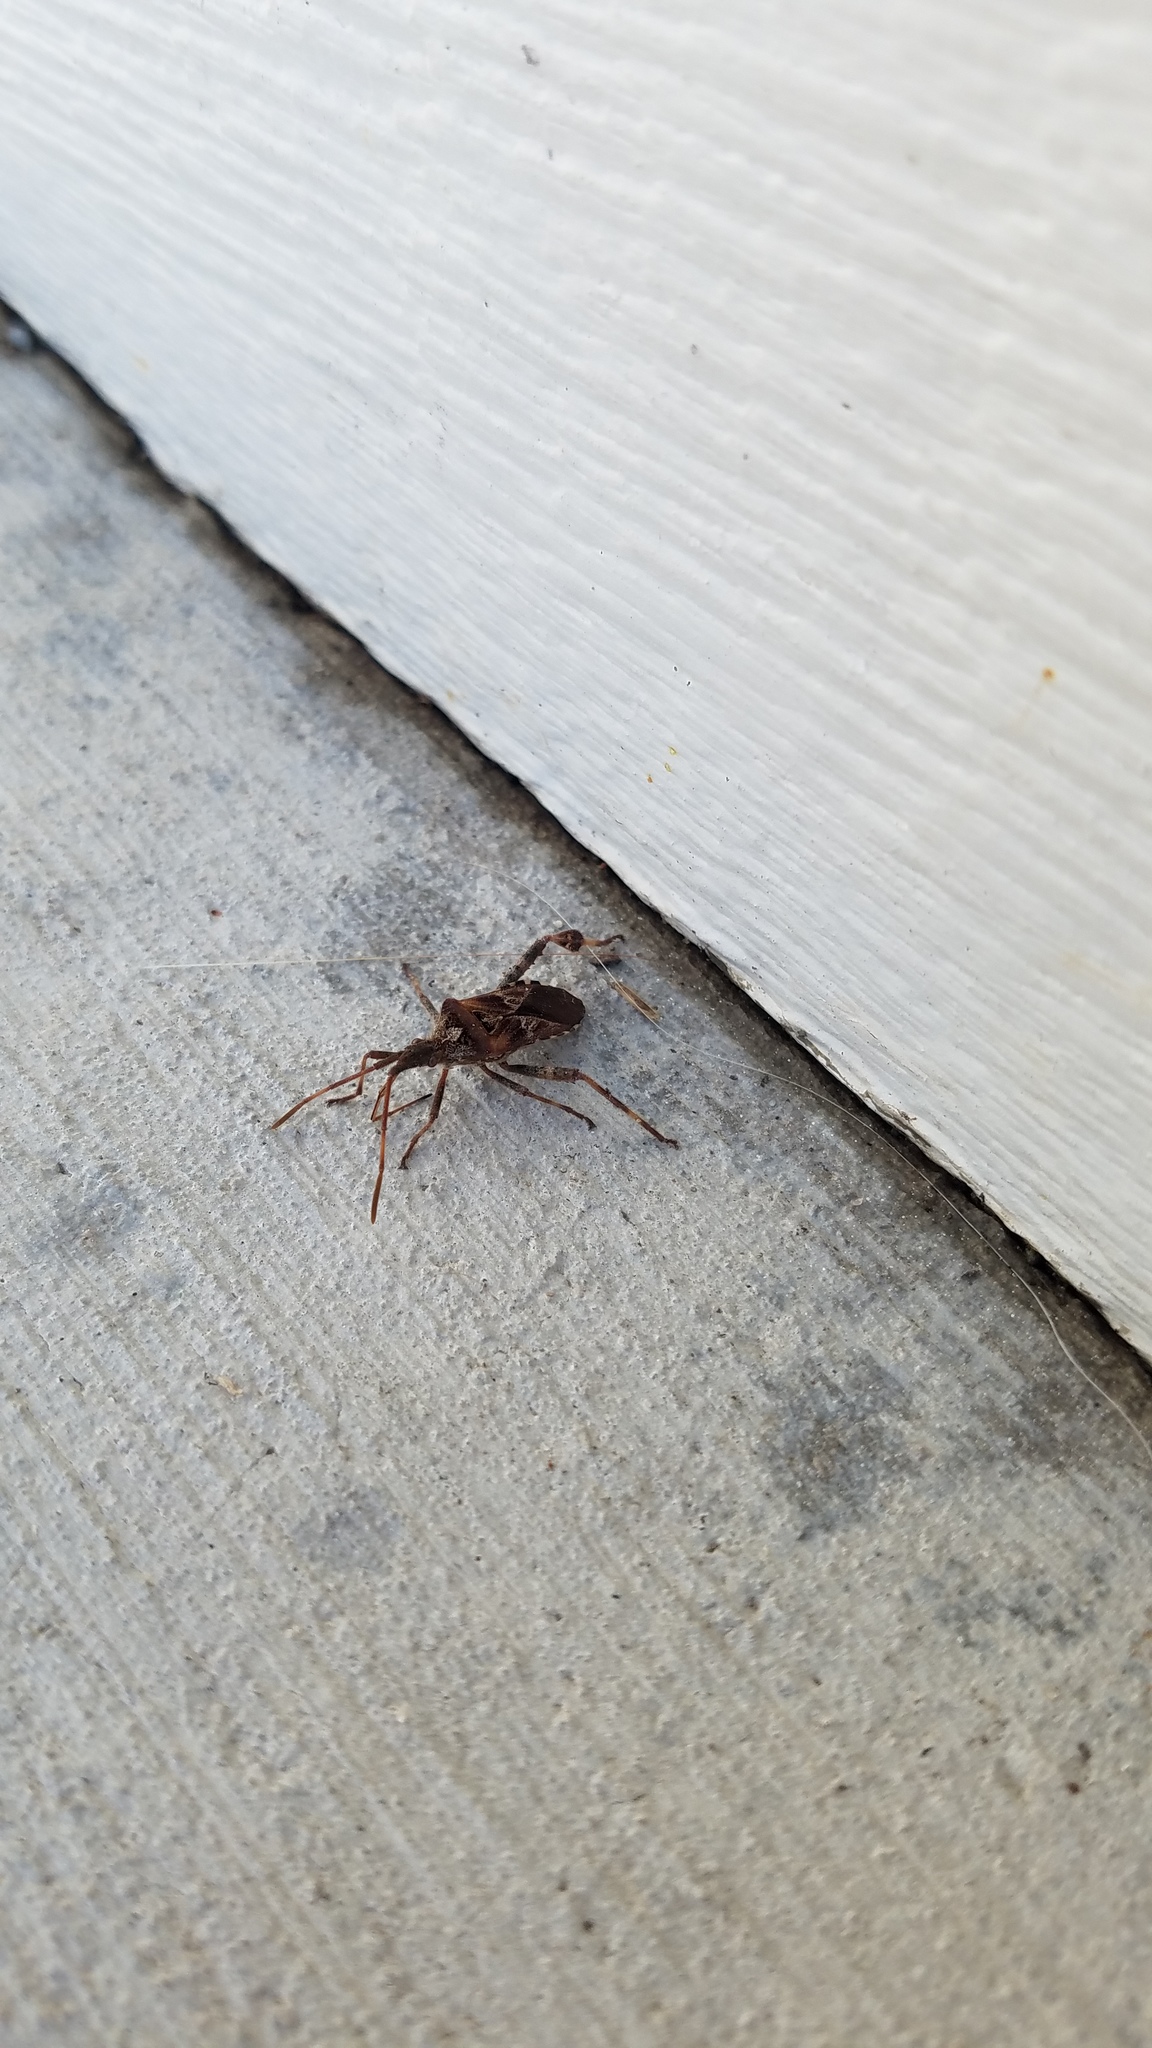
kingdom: Animalia
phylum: Arthropoda
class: Insecta
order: Hemiptera
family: Coreidae
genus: Leptoglossus
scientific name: Leptoglossus occidentalis
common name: Western conifer-seed bug
